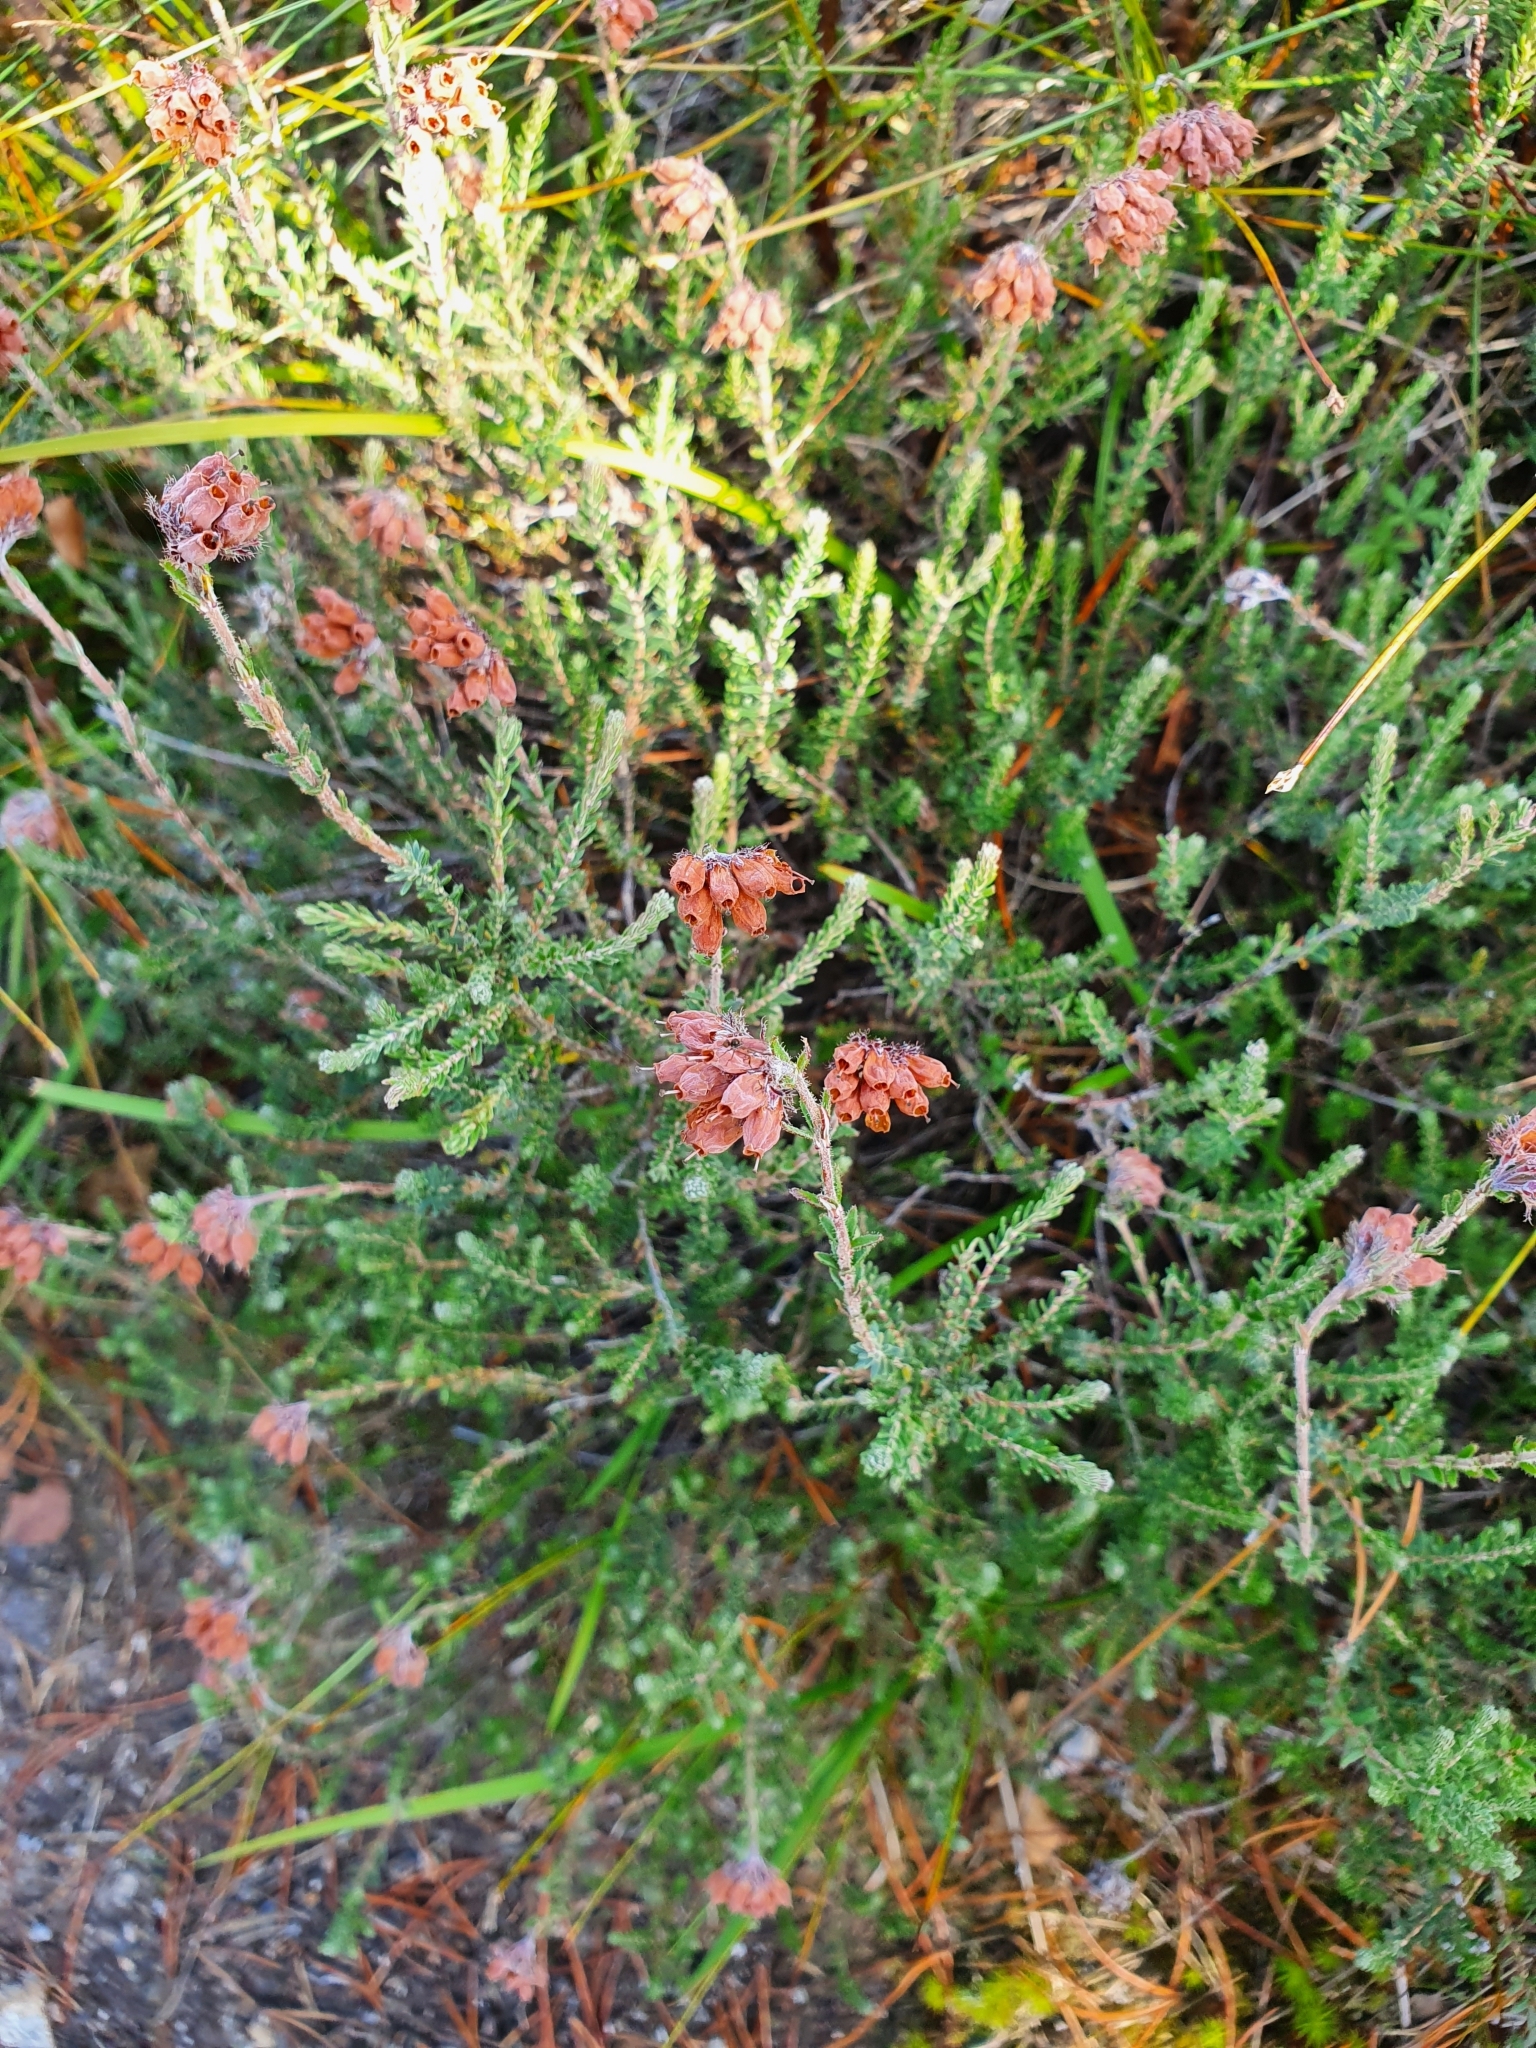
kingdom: Plantae
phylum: Tracheophyta
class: Magnoliopsida
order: Ericales
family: Ericaceae
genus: Erica
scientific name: Erica tetralix
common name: Cross-leaved heath
